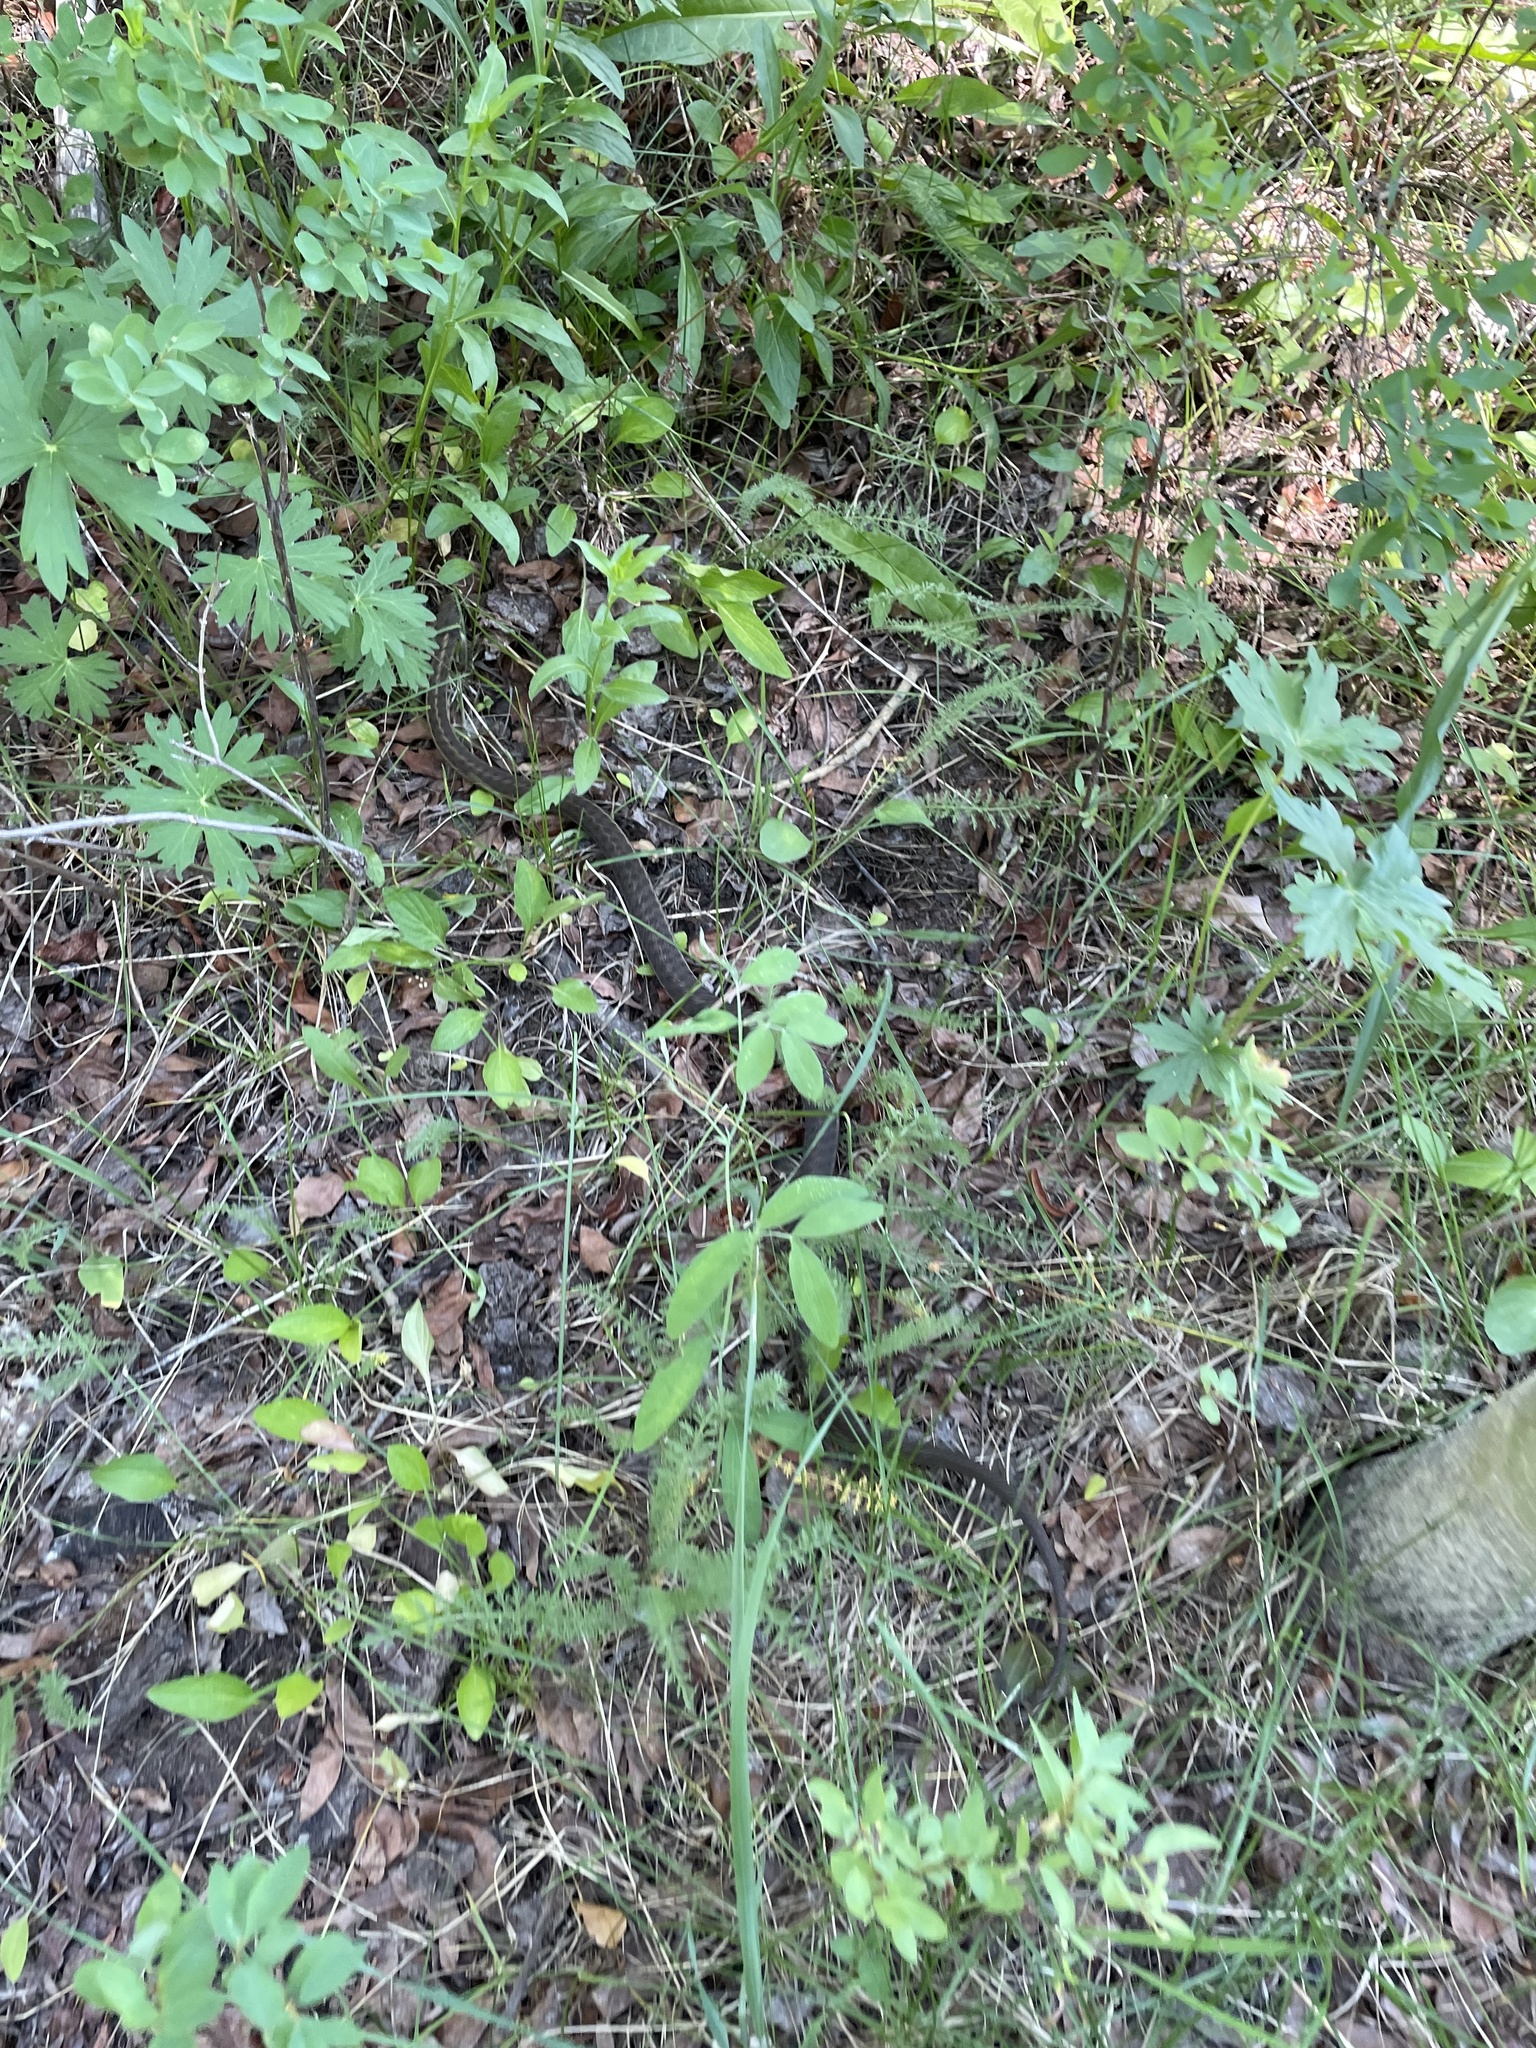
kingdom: Animalia
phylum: Chordata
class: Squamata
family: Colubridae
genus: Thamnophis
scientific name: Thamnophis elegans
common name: Western terrestrial garter snake
